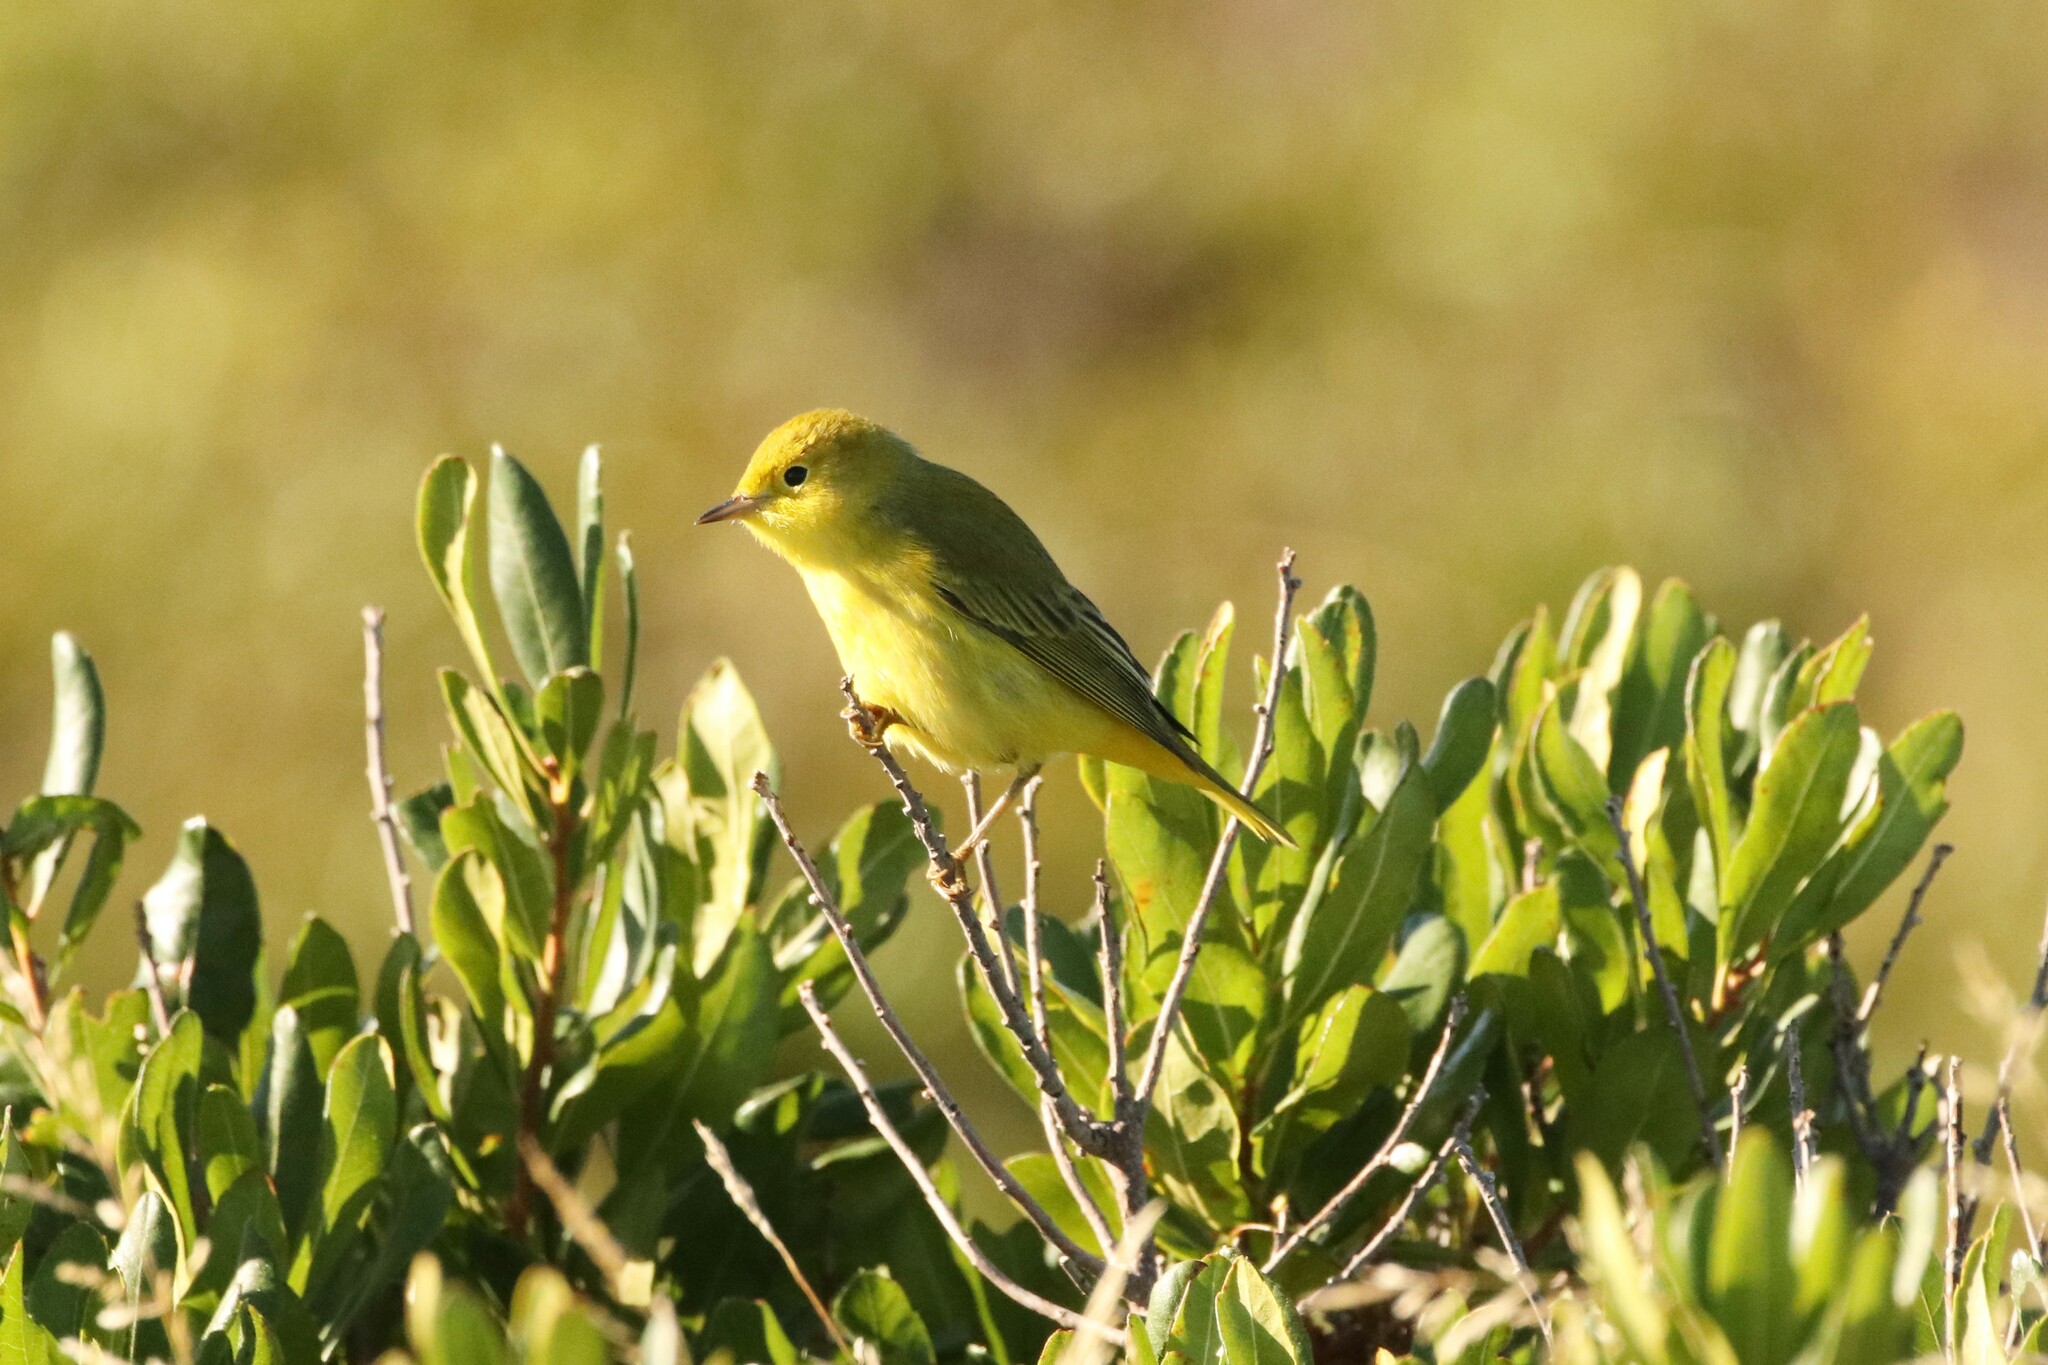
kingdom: Animalia
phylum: Chordata
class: Aves
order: Passeriformes
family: Parulidae
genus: Setophaga
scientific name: Setophaga petechia
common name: Yellow warbler
